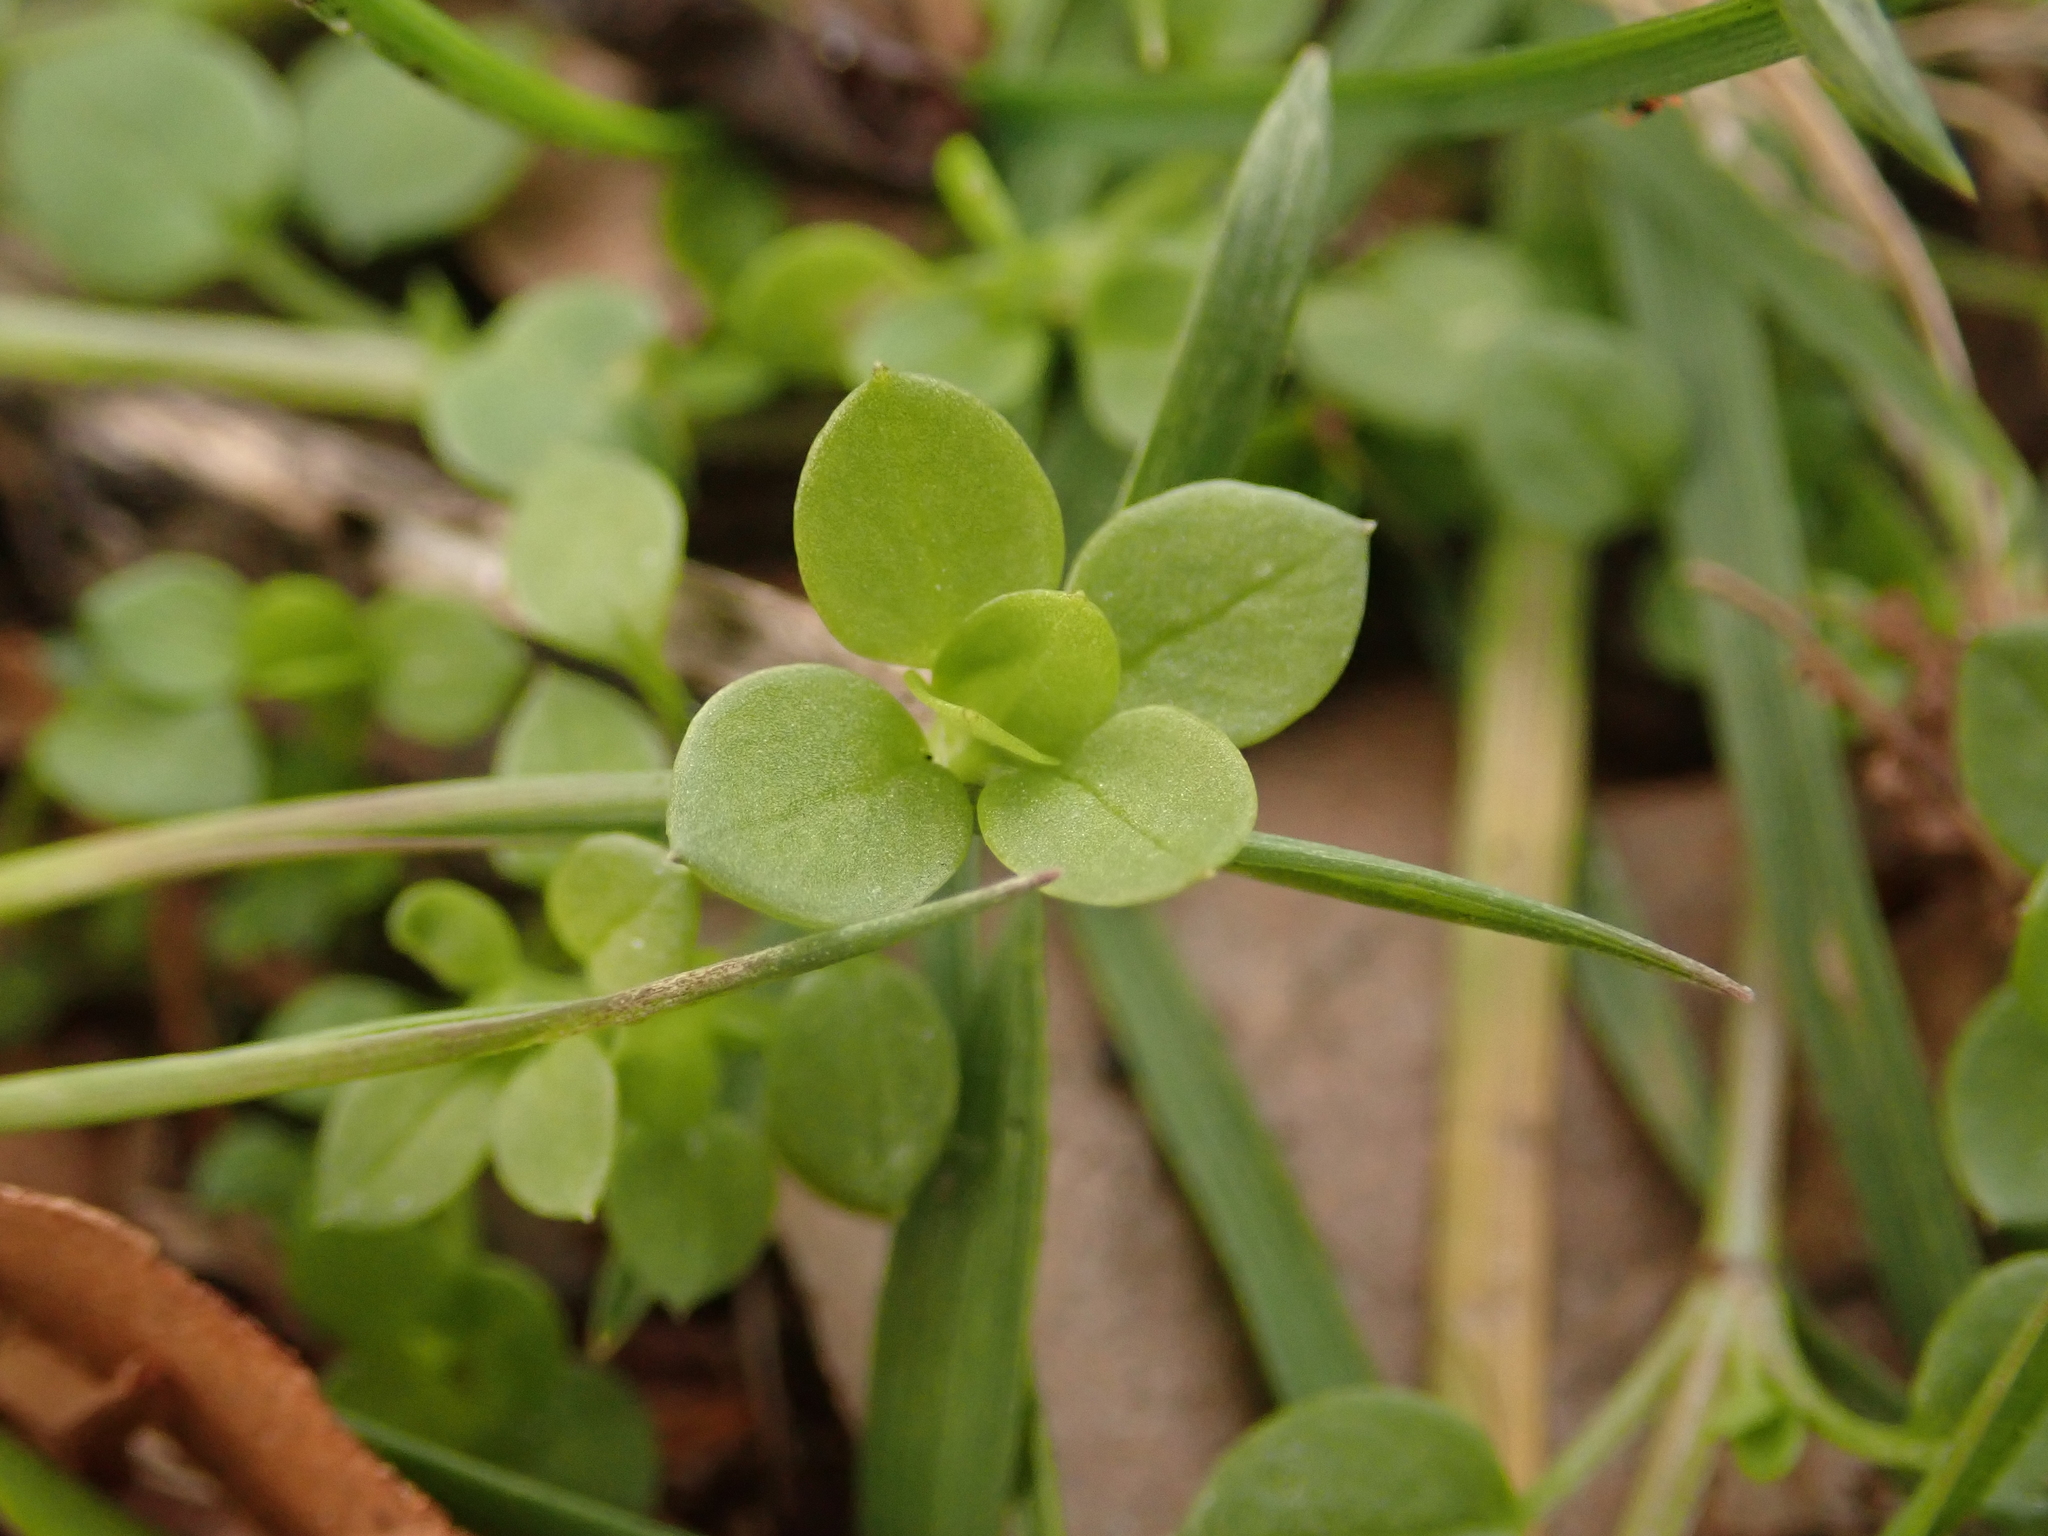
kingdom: Plantae
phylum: Tracheophyta
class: Magnoliopsida
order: Caryophyllales
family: Caryophyllaceae
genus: Stellaria
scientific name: Stellaria media
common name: Common chickweed
